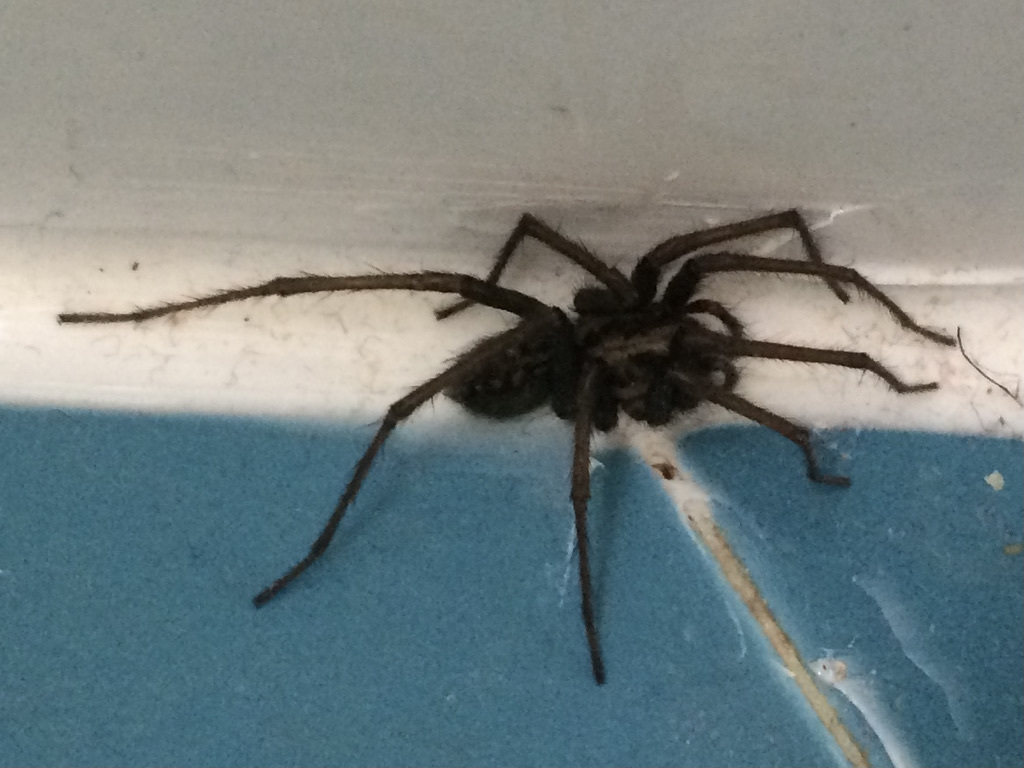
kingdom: Animalia
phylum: Arthropoda
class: Arachnida
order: Araneae
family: Agelenidae
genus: Eratigena
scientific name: Eratigena duellica
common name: Giant house spider
